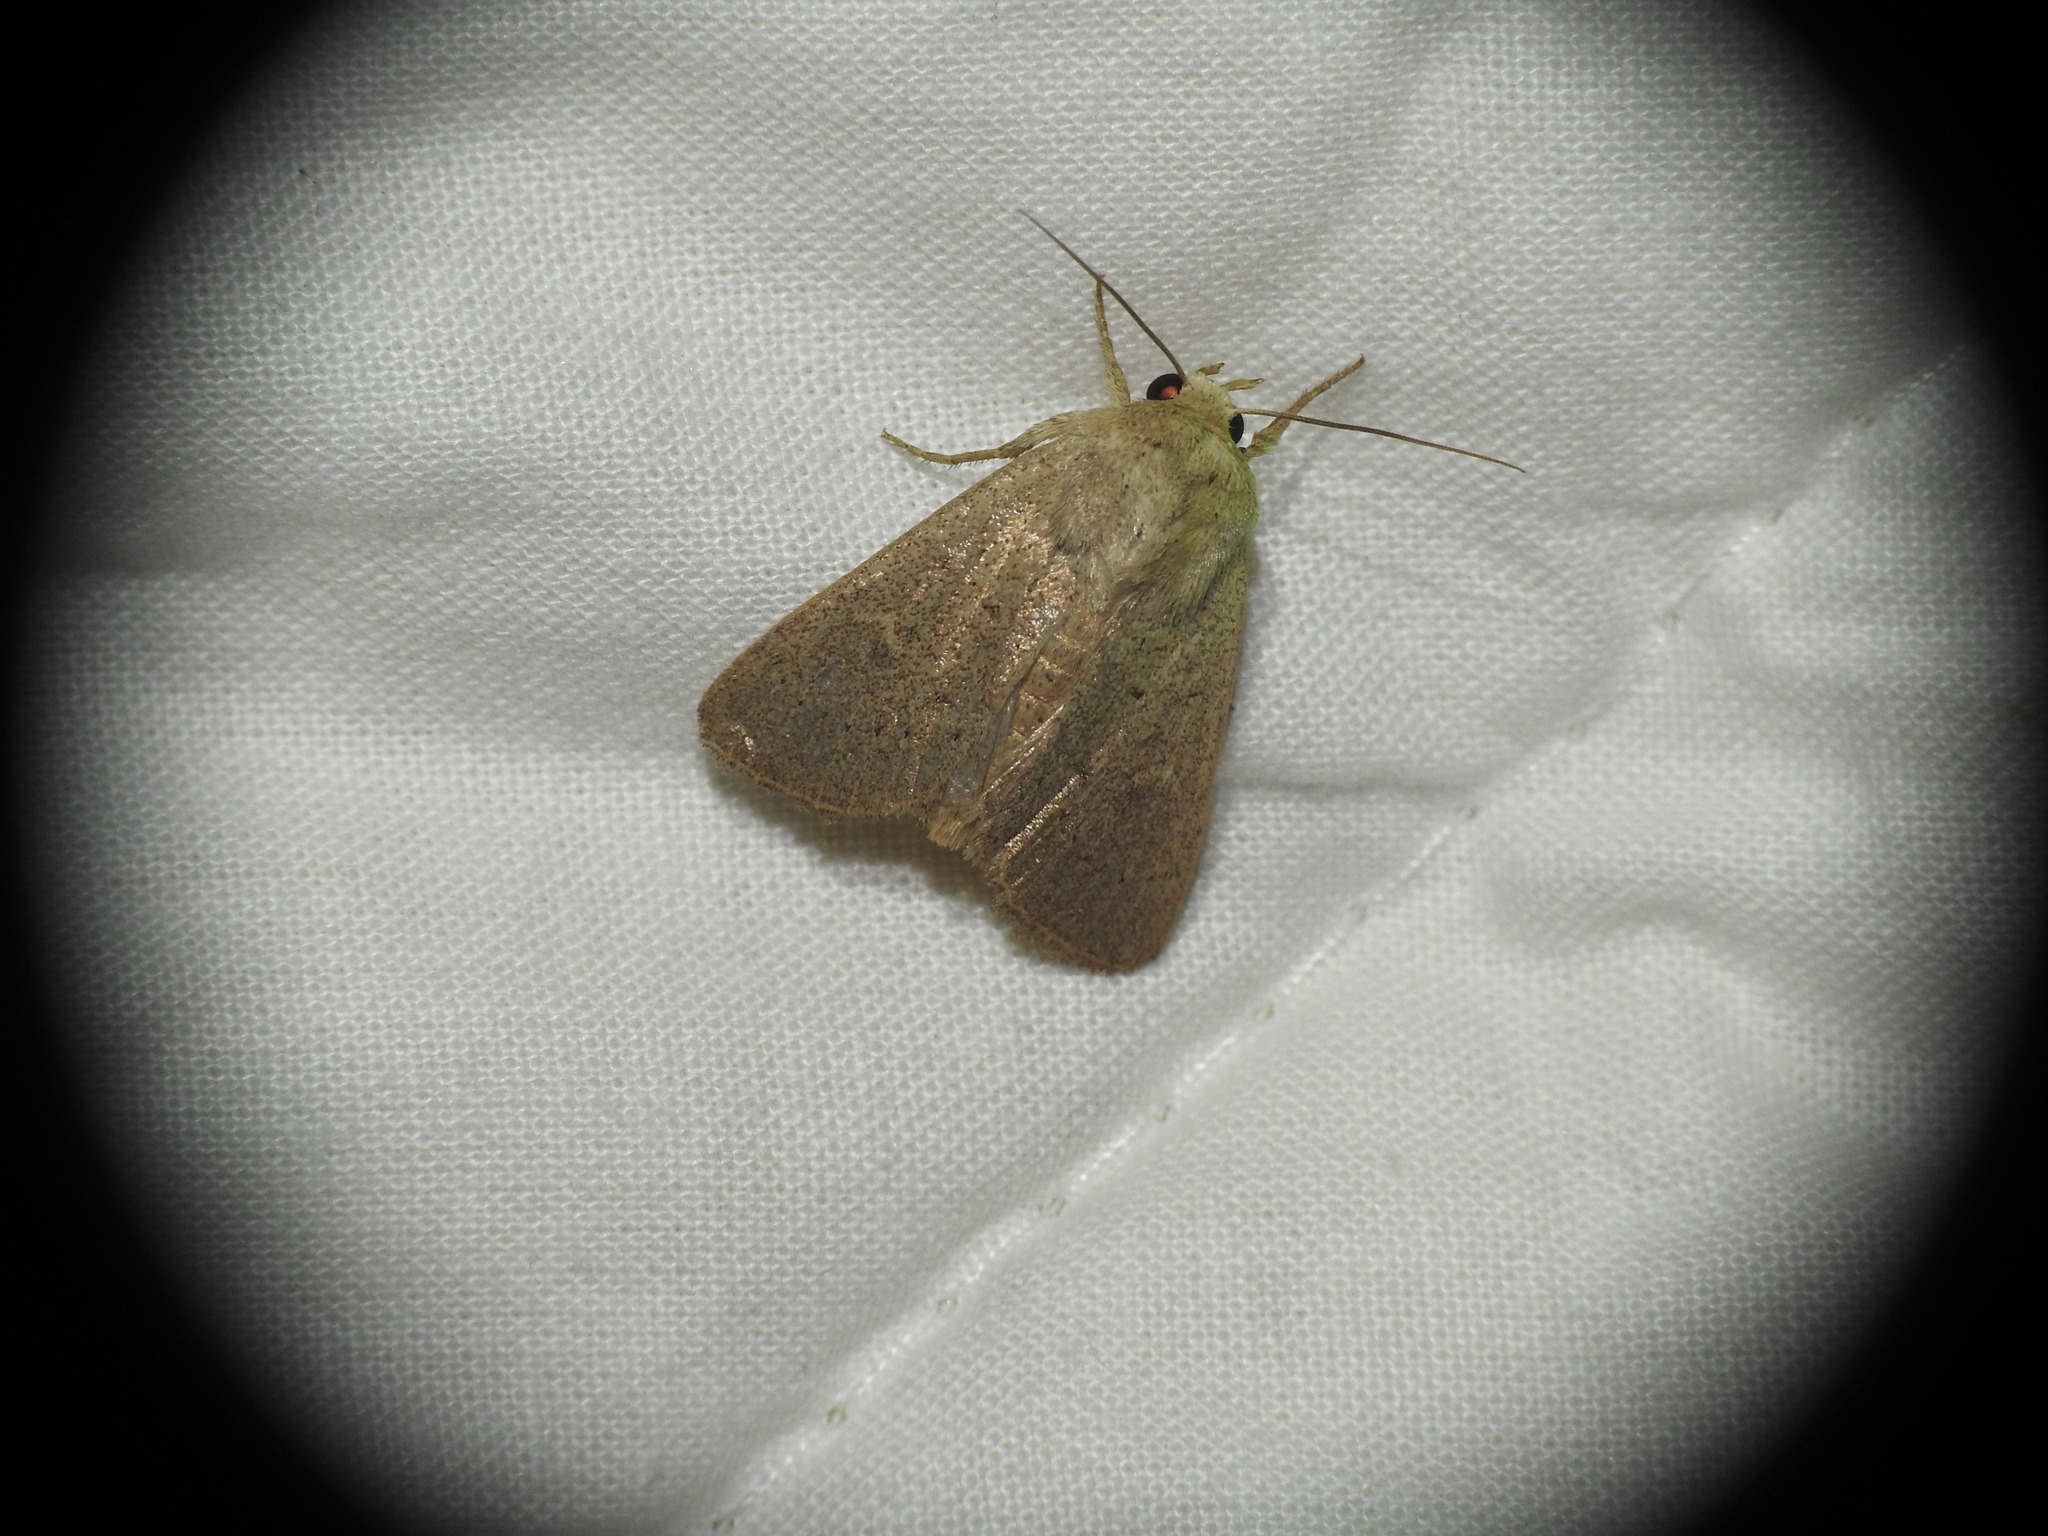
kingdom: Animalia
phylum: Arthropoda
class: Insecta
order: Lepidoptera
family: Noctuidae
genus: Mythimna
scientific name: Mythimna ferrago
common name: Clay
